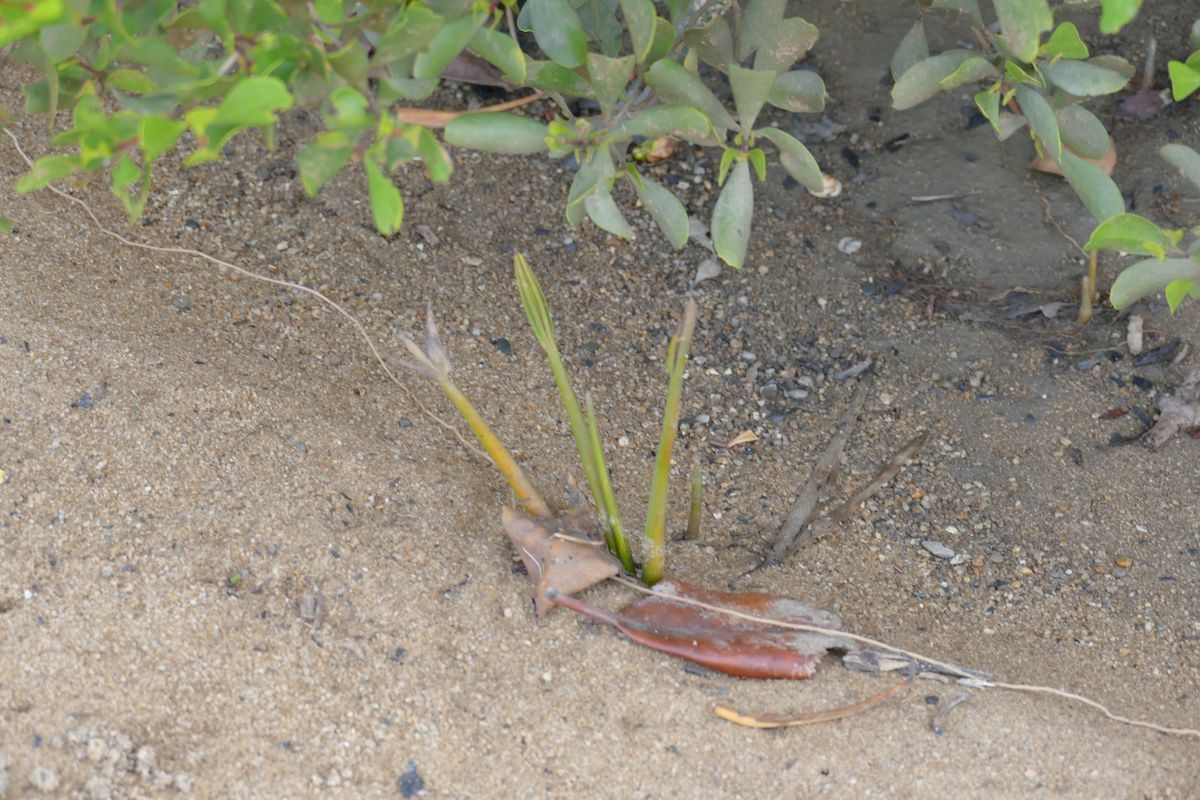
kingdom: Plantae
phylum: Tracheophyta
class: Liliopsida
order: Arecales
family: Arecaceae
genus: Nypa
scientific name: Nypa fruticans
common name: Mangrove palm
